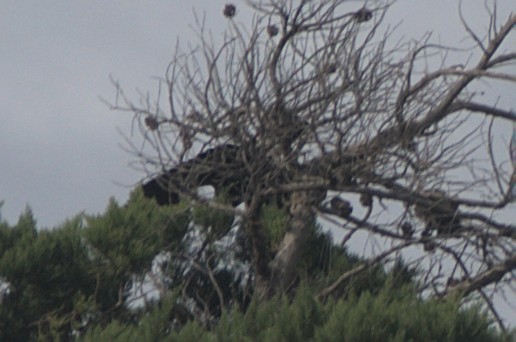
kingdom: Animalia
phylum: Chordata
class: Aves
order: Passeriformes
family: Cracticidae
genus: Gymnorhina
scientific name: Gymnorhina tibicen
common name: Australian magpie
